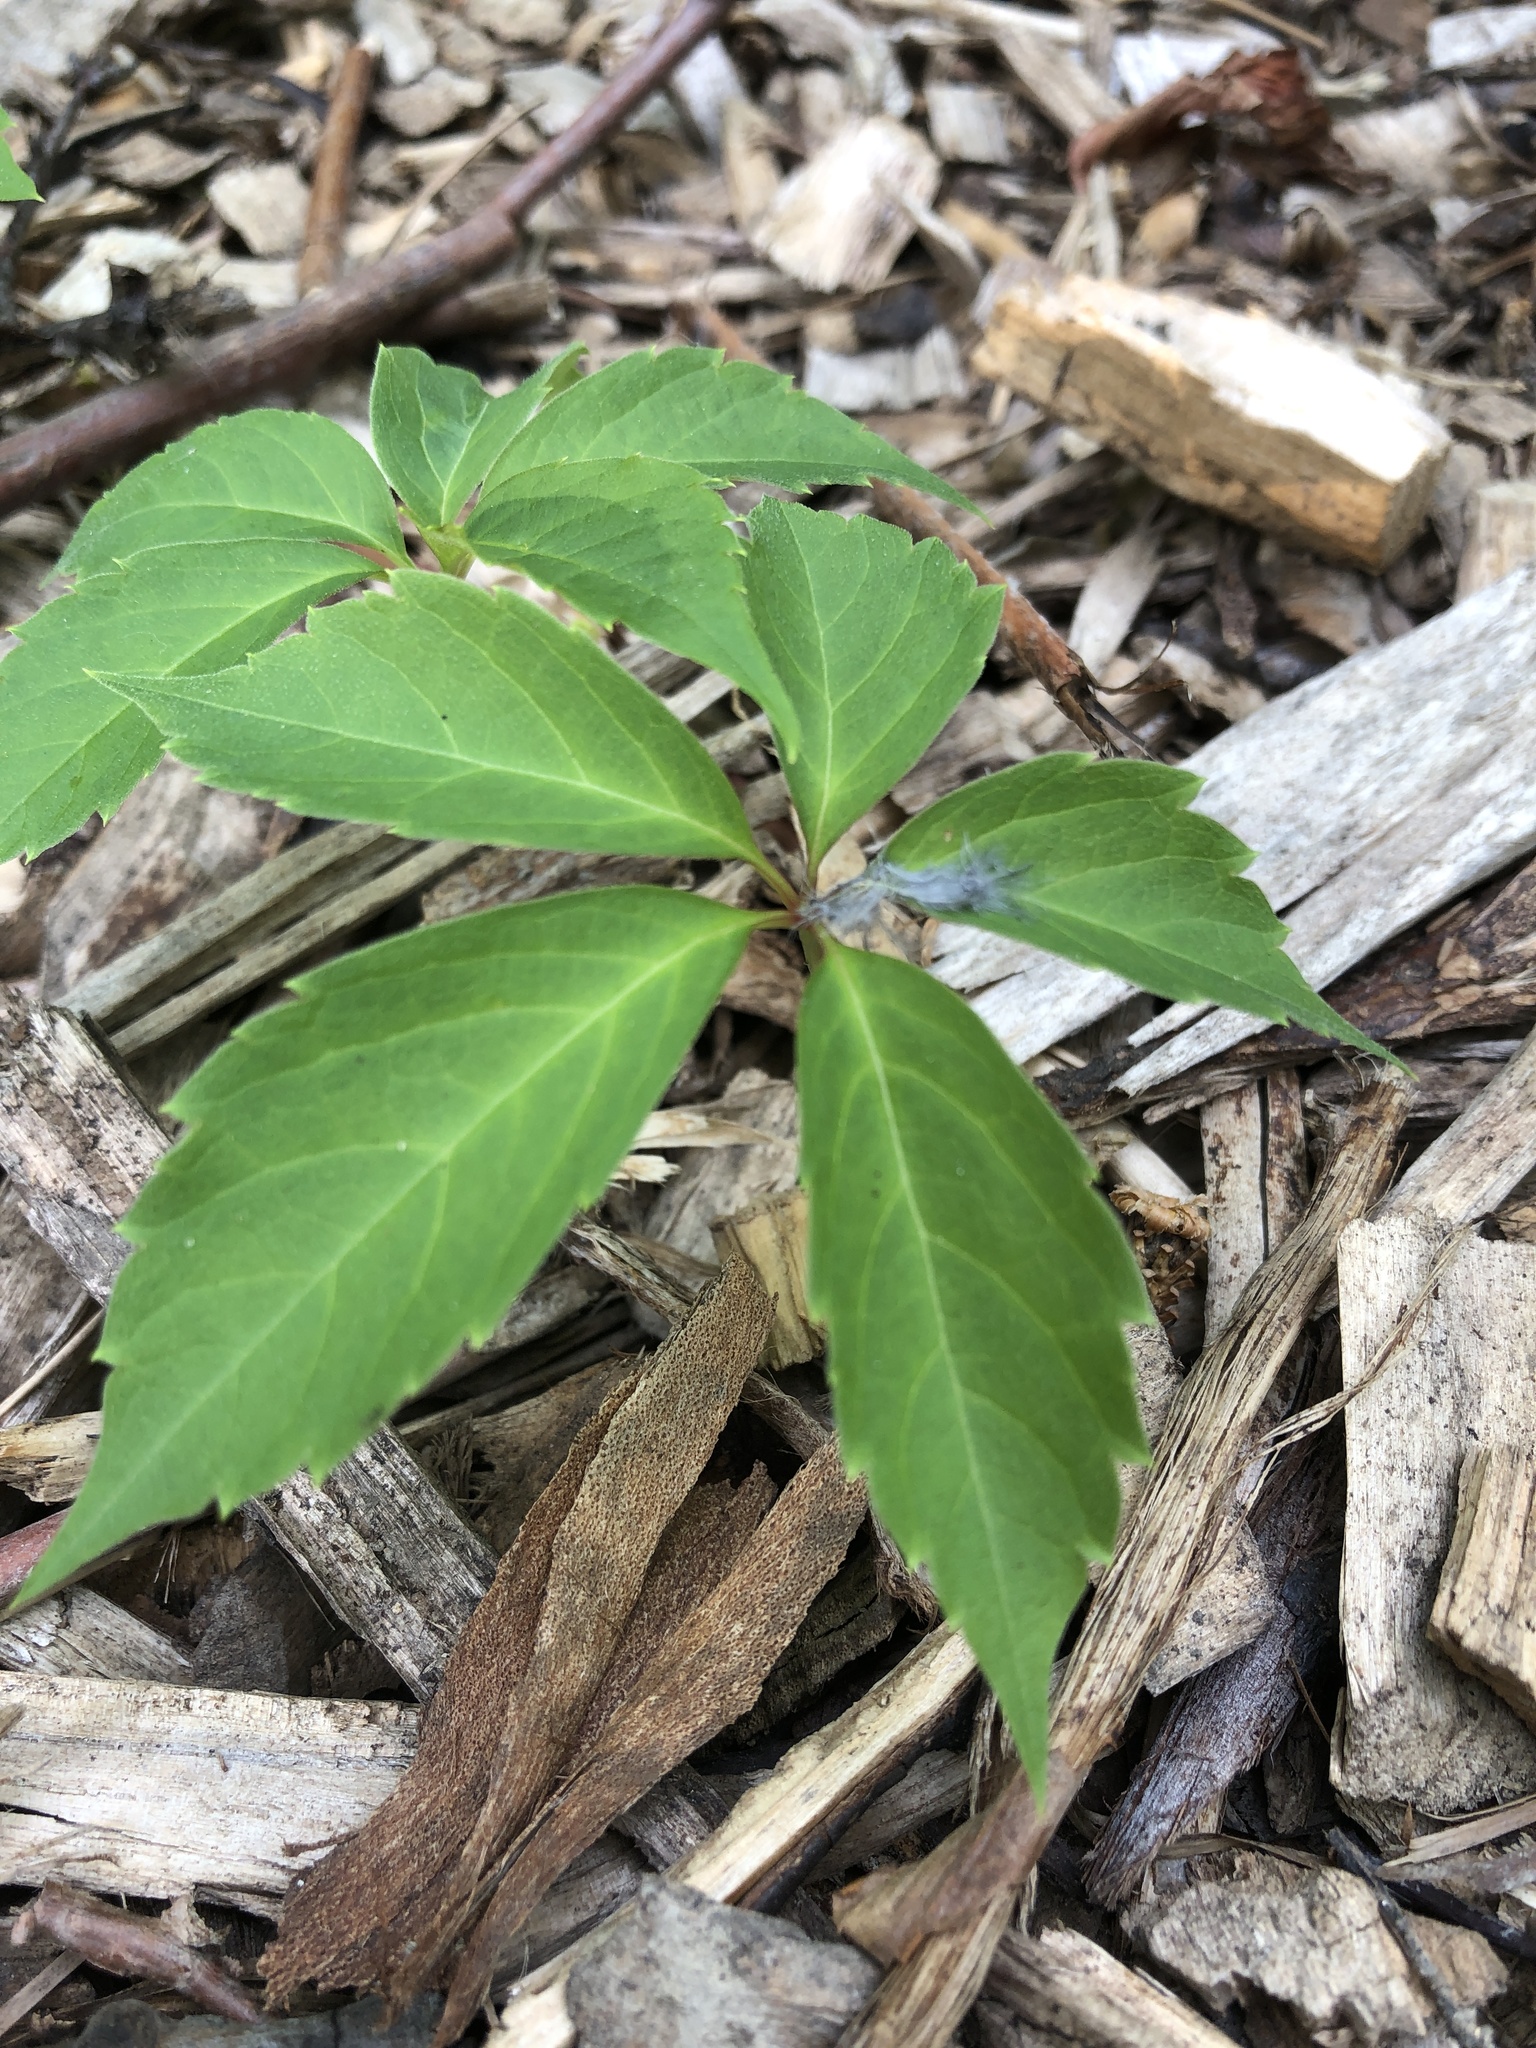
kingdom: Plantae
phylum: Tracheophyta
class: Magnoliopsida
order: Vitales
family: Vitaceae
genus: Parthenocissus
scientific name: Parthenocissus quinquefolia
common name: Virginia-creeper
